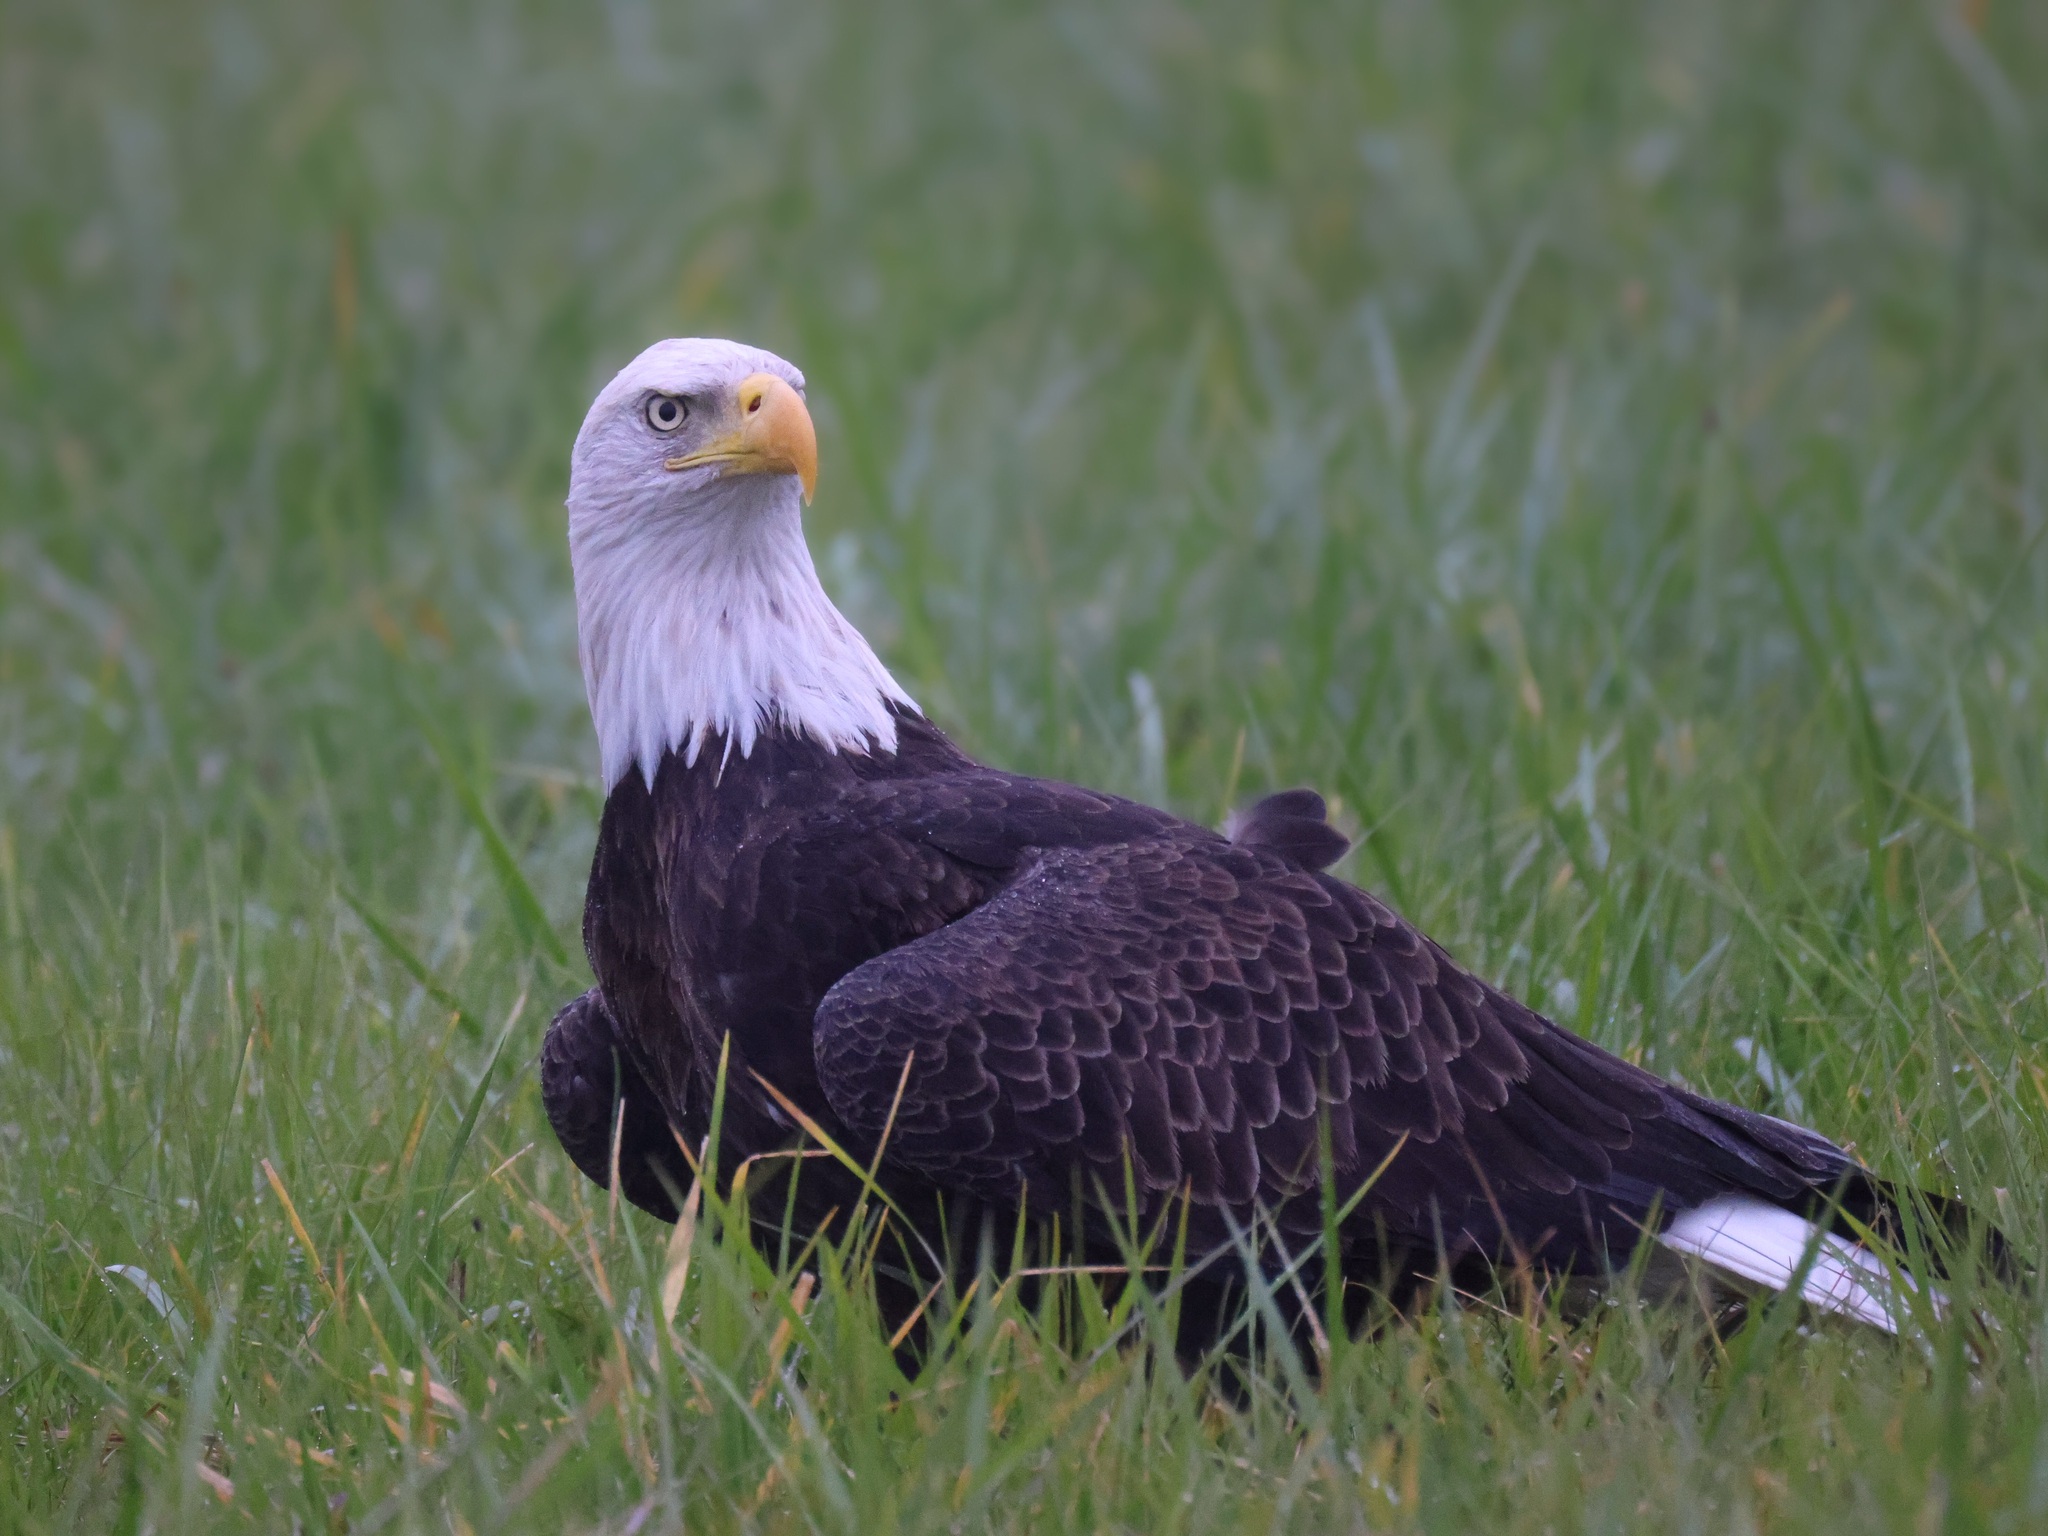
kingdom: Animalia
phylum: Chordata
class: Aves
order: Accipitriformes
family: Accipitridae
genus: Haliaeetus
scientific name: Haliaeetus leucocephalus
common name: Bald eagle
